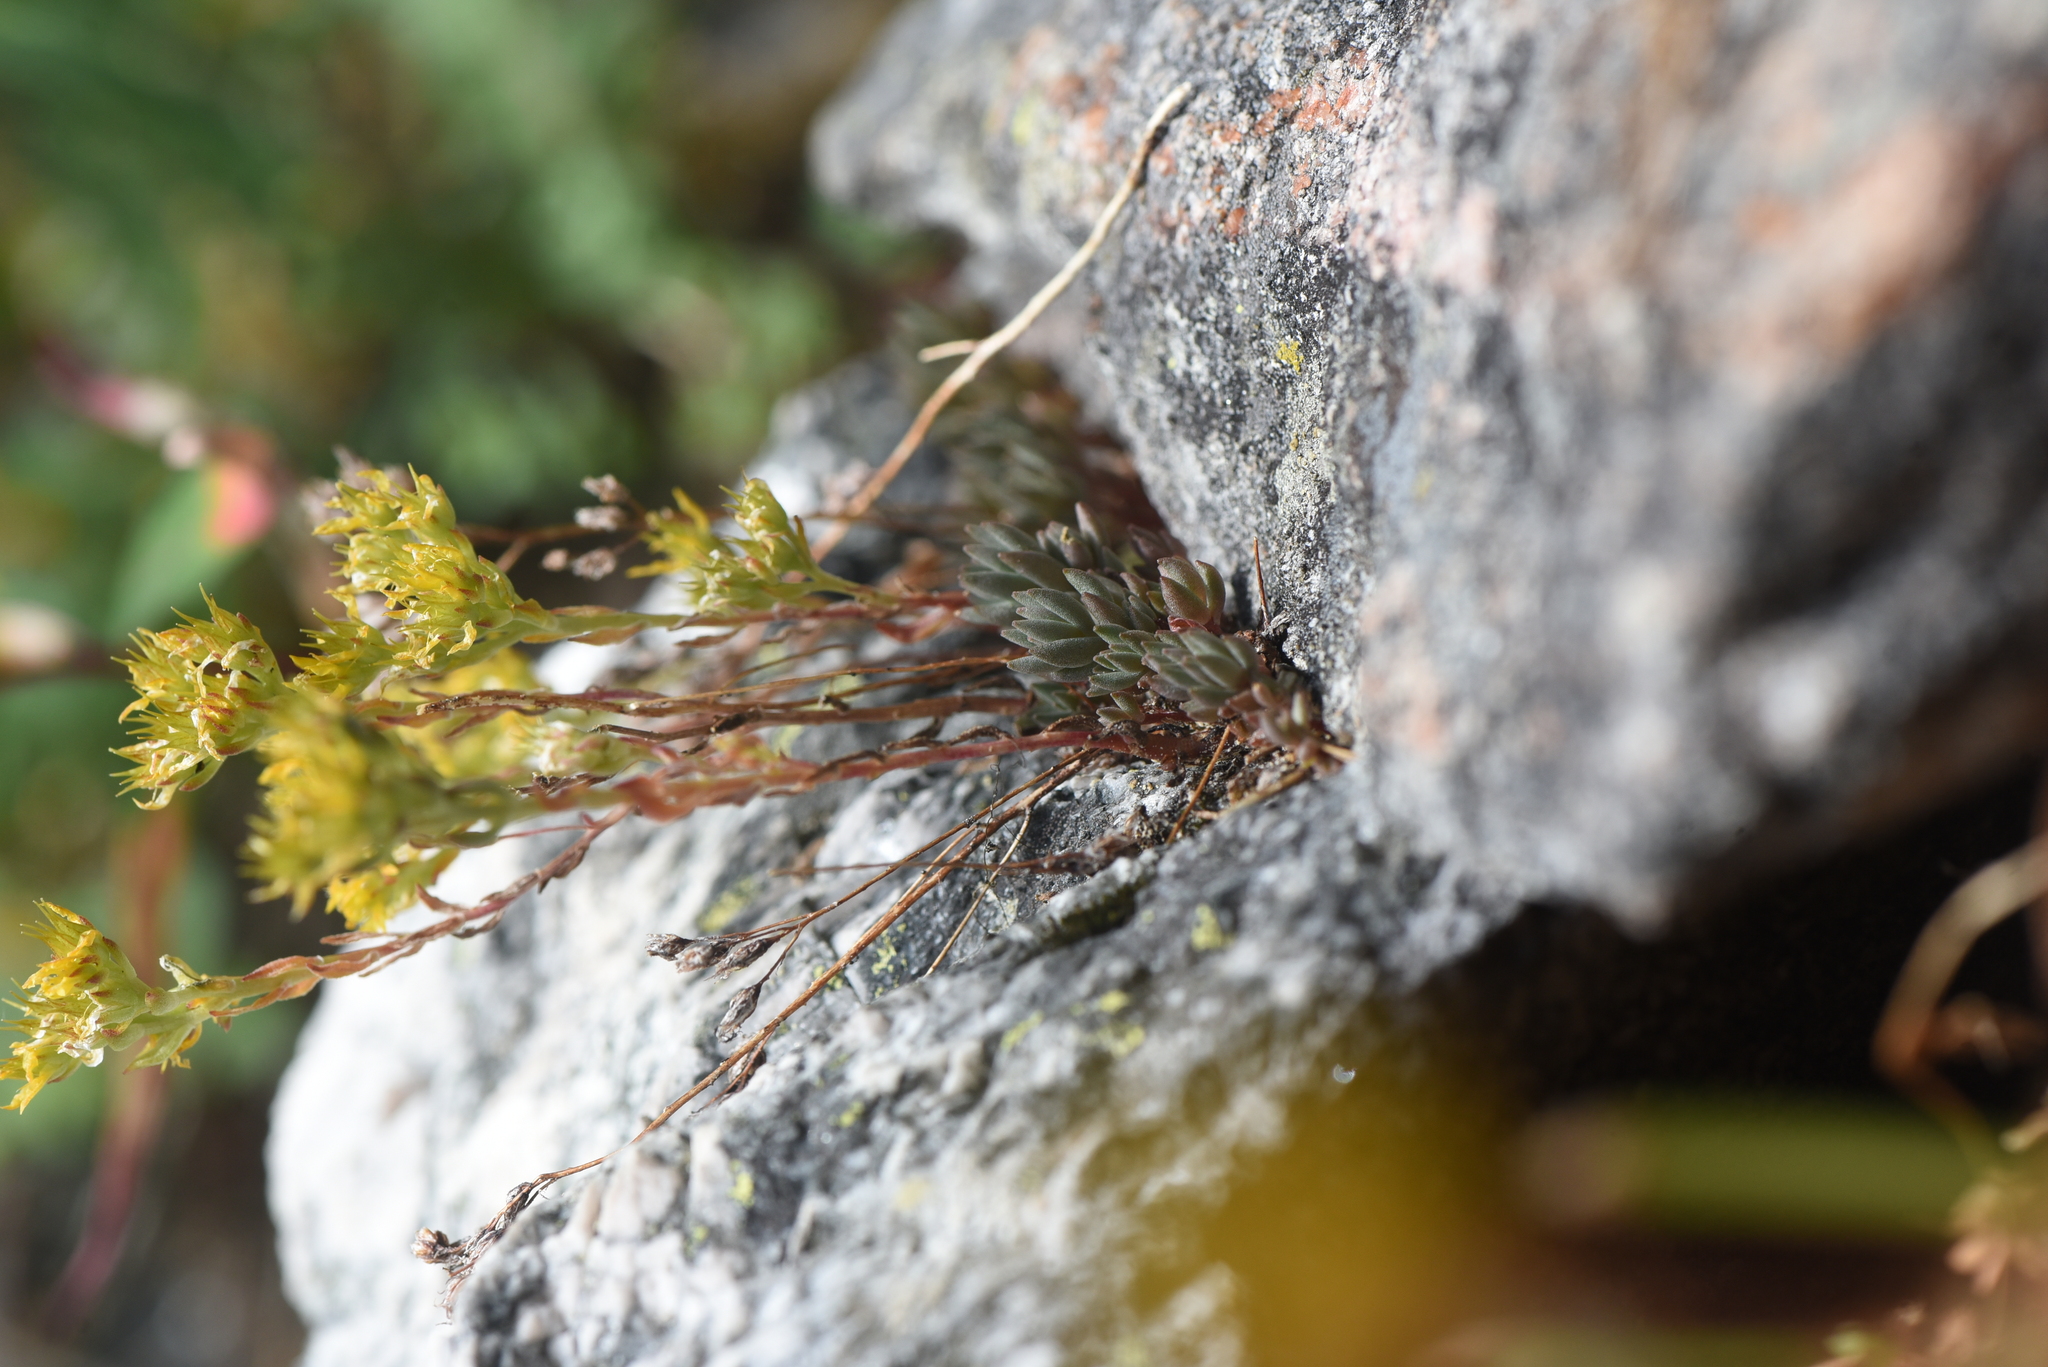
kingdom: Plantae
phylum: Tracheophyta
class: Magnoliopsida
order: Saxifragales
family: Crassulaceae
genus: Sedum
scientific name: Sedum lanceolatum
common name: Common stonecrop
